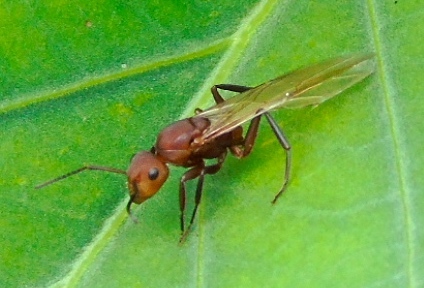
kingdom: Animalia
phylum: Arthropoda
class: Insecta
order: Hymenoptera
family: Formicidae
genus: Camponotus
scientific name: Camponotus rectangularis
